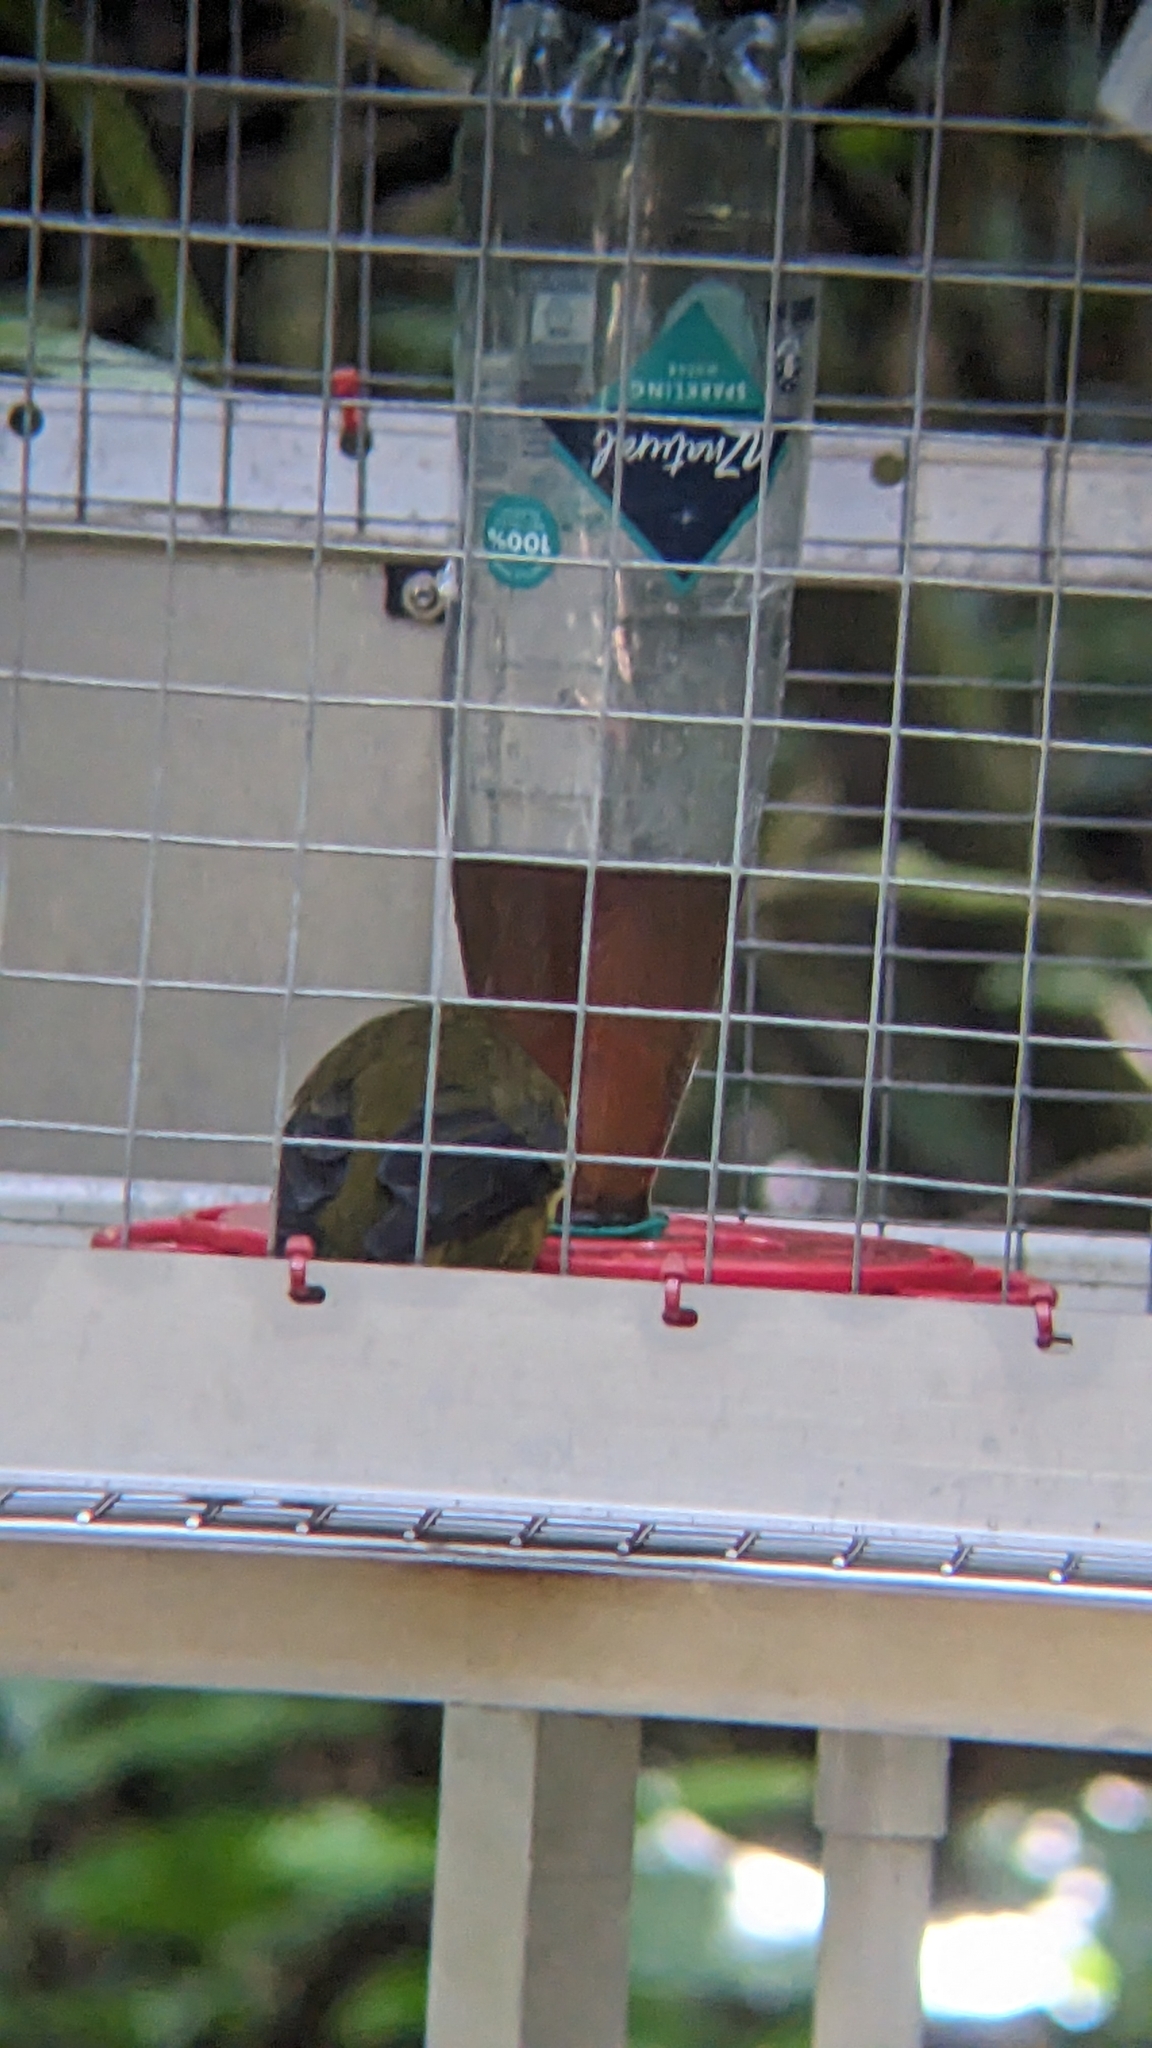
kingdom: Animalia
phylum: Chordata
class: Aves
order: Passeriformes
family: Meliphagidae
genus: Anthornis
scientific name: Anthornis melanura
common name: New zealand bellbird
